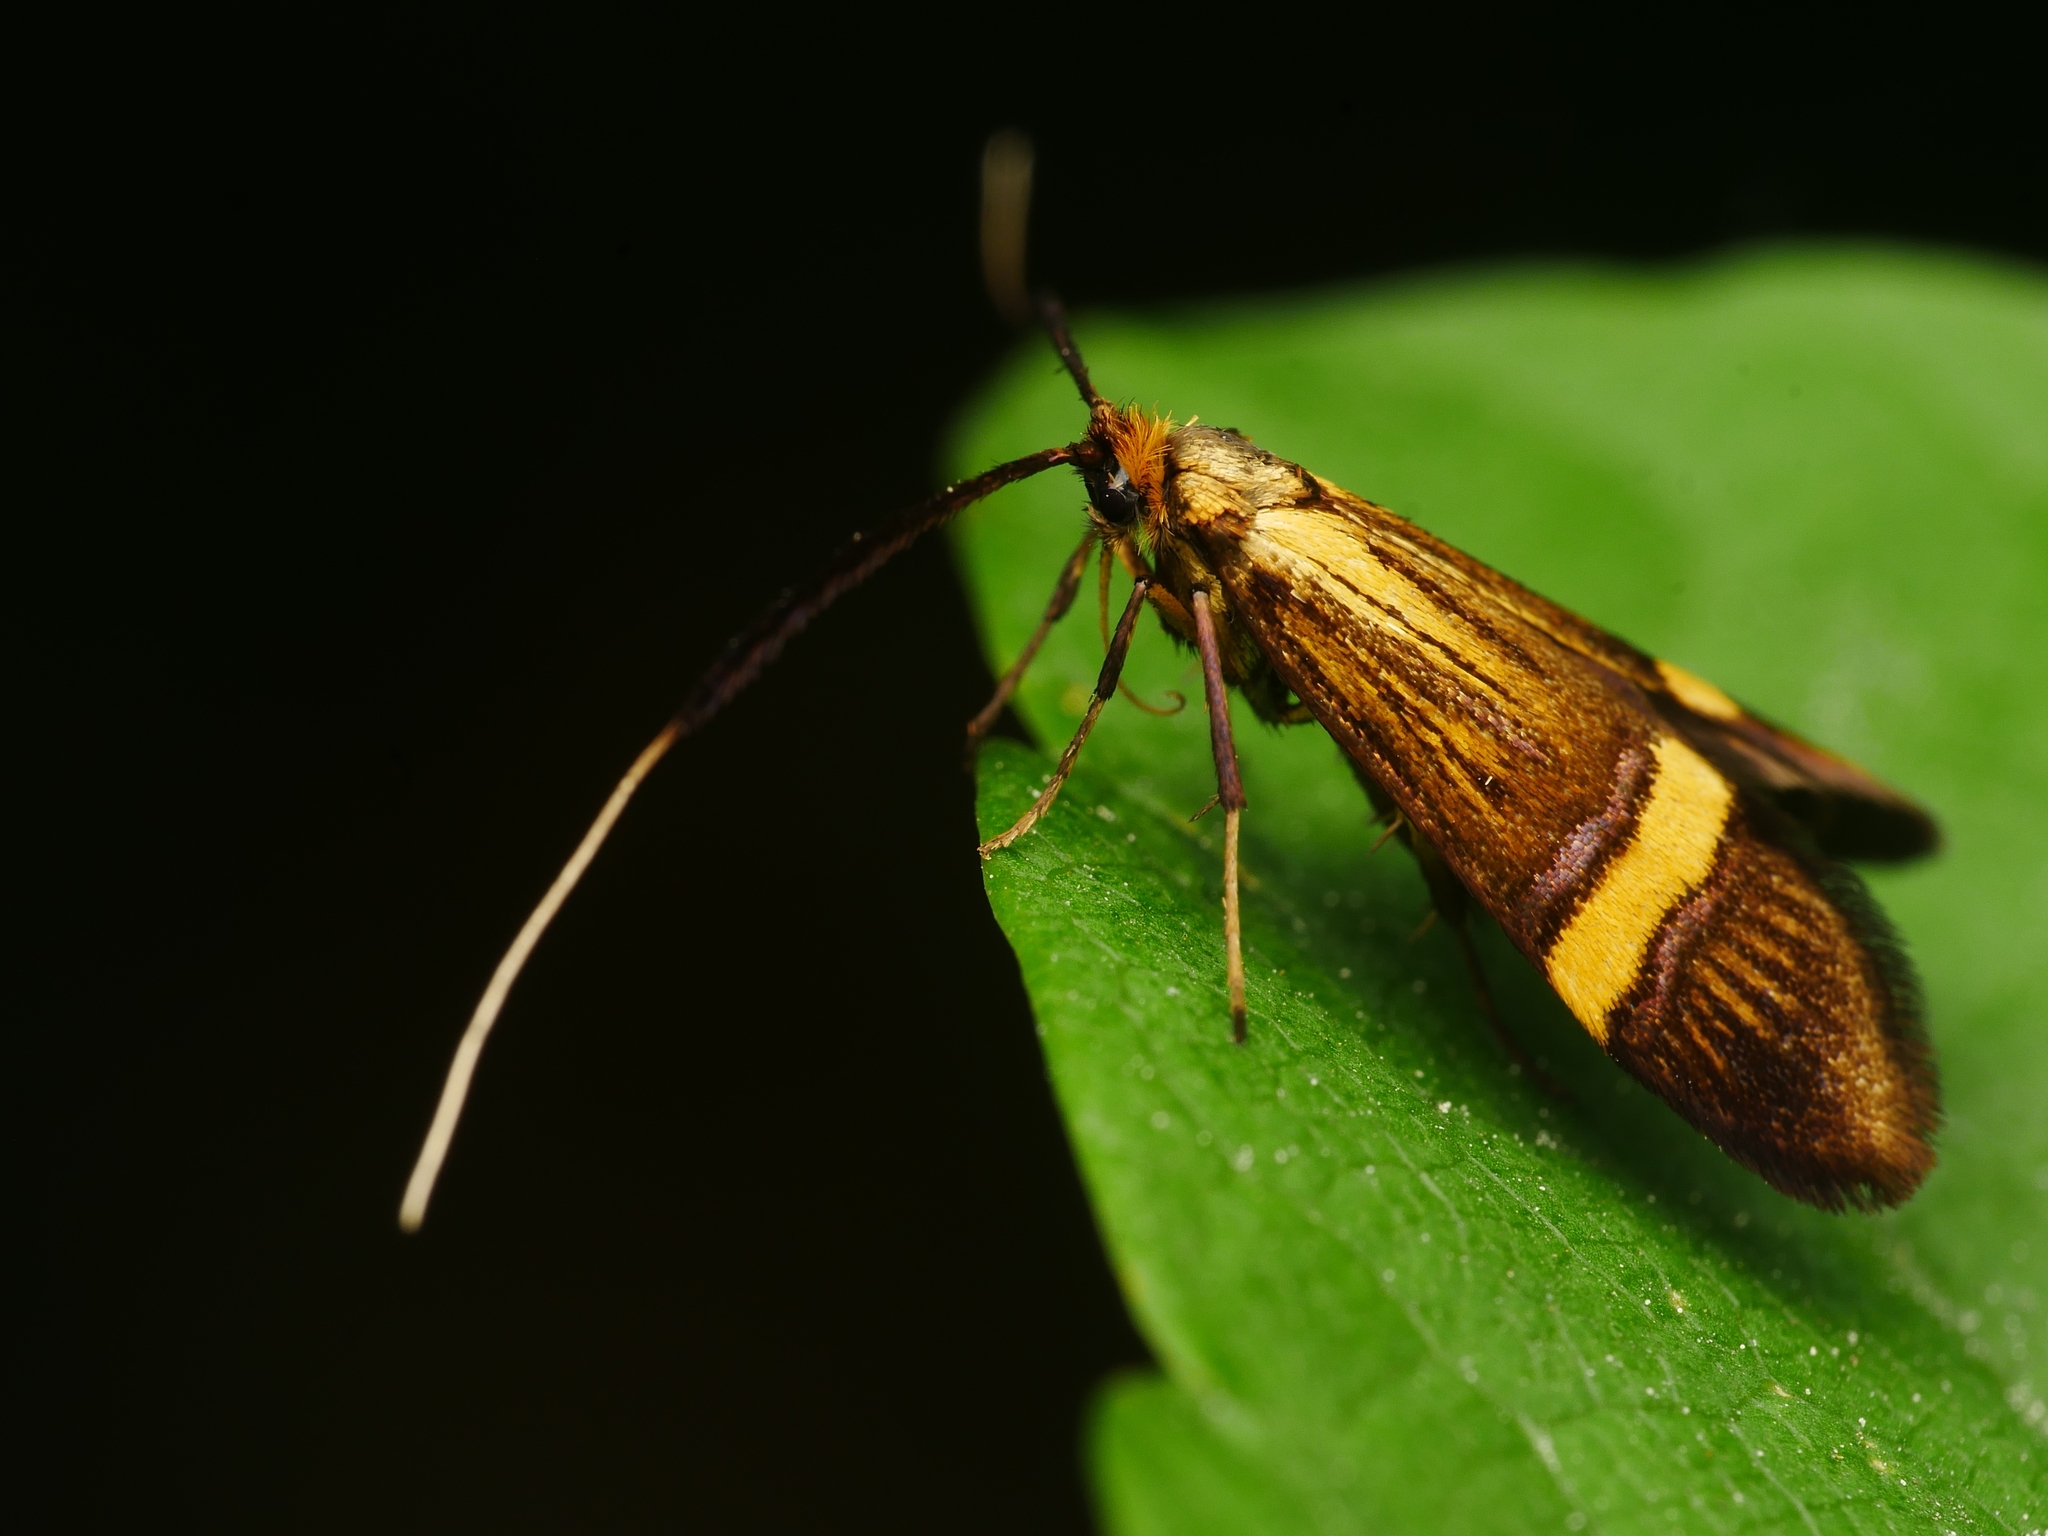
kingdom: Animalia
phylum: Arthropoda
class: Insecta
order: Lepidoptera
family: Adelidae
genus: Nemophora
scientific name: Nemophora degeerella
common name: Yellow-barred long-horn
